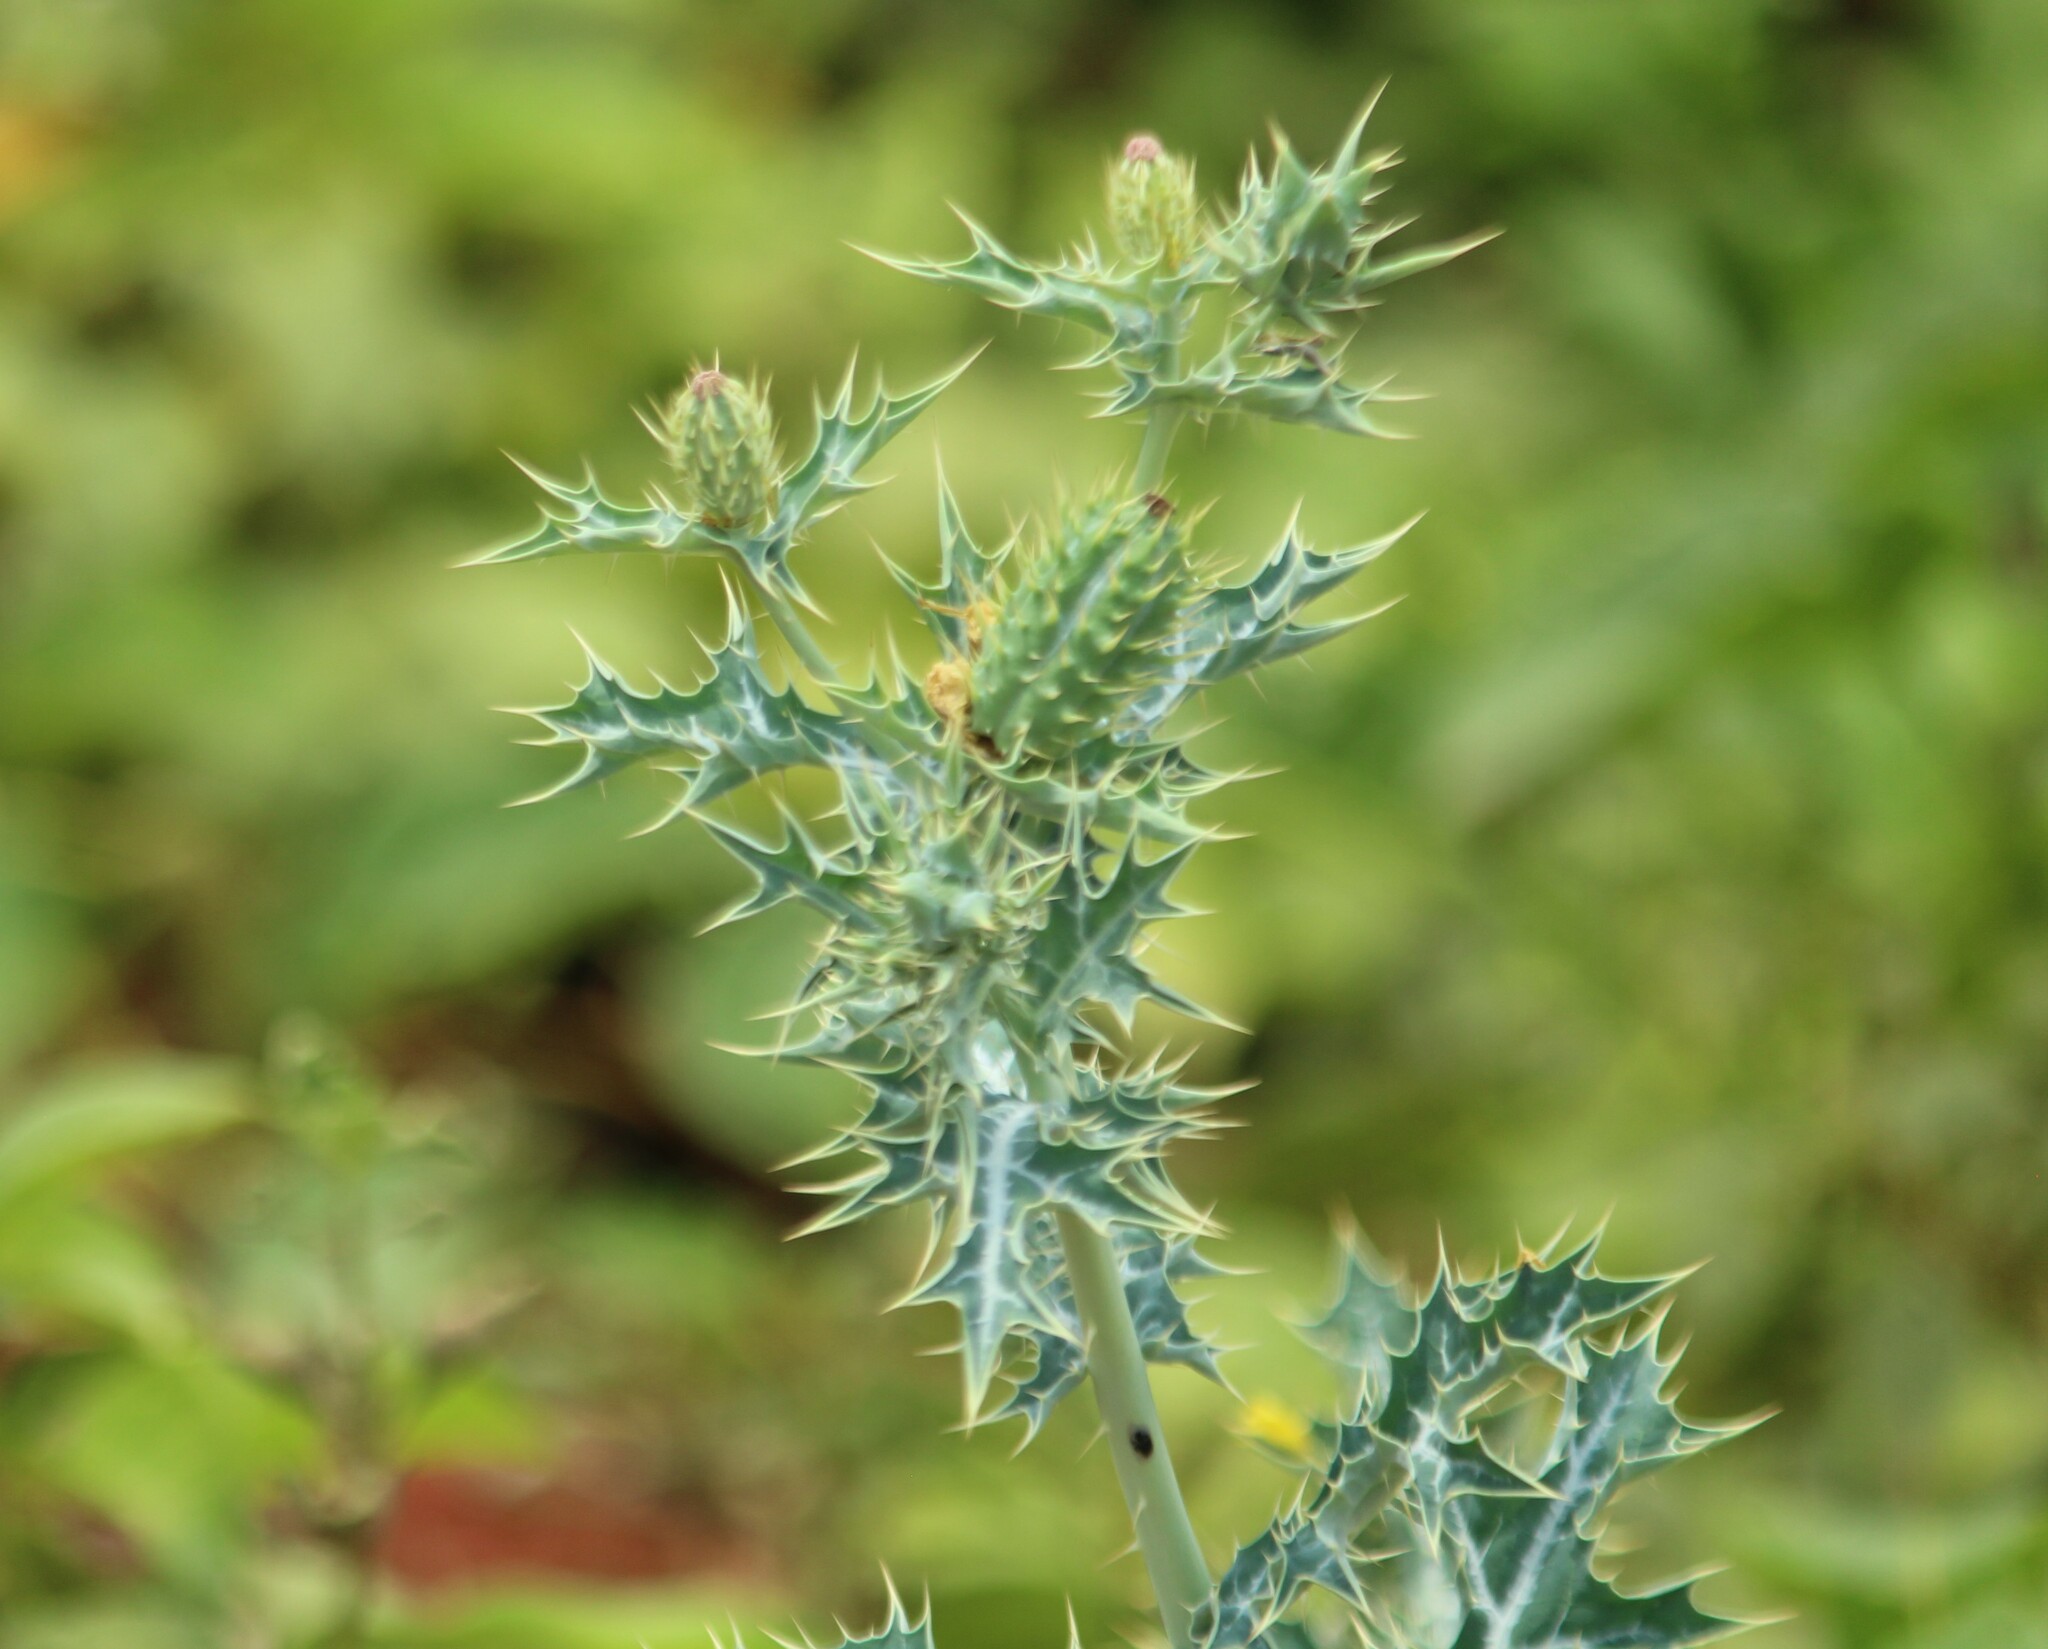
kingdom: Plantae
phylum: Tracheophyta
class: Magnoliopsida
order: Ranunculales
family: Papaveraceae
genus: Argemone
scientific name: Argemone mexicana
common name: Mexican poppy
